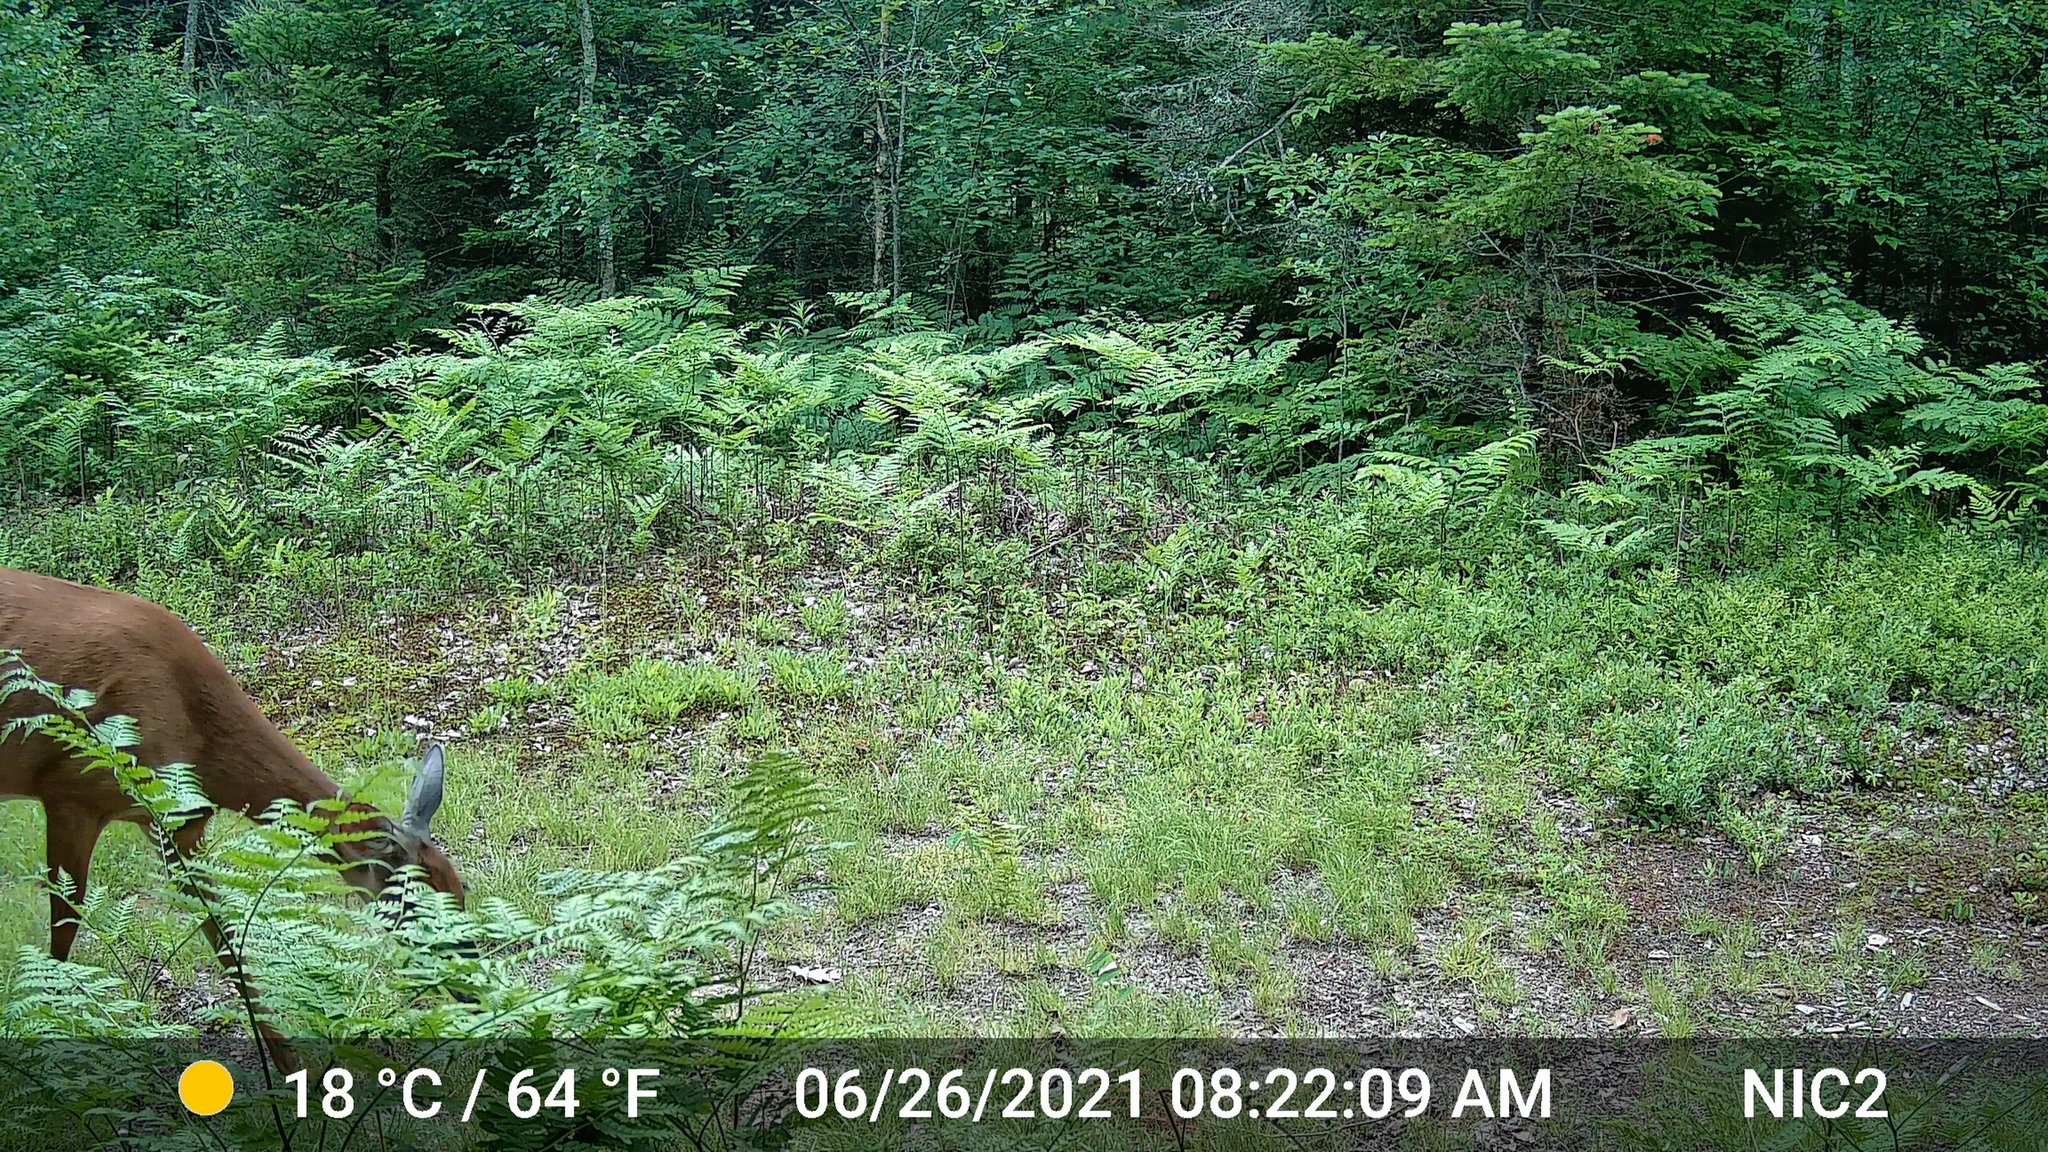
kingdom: Animalia
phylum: Chordata
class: Mammalia
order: Artiodactyla
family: Cervidae
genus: Odocoileus
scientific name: Odocoileus virginianus
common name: White-tailed deer
